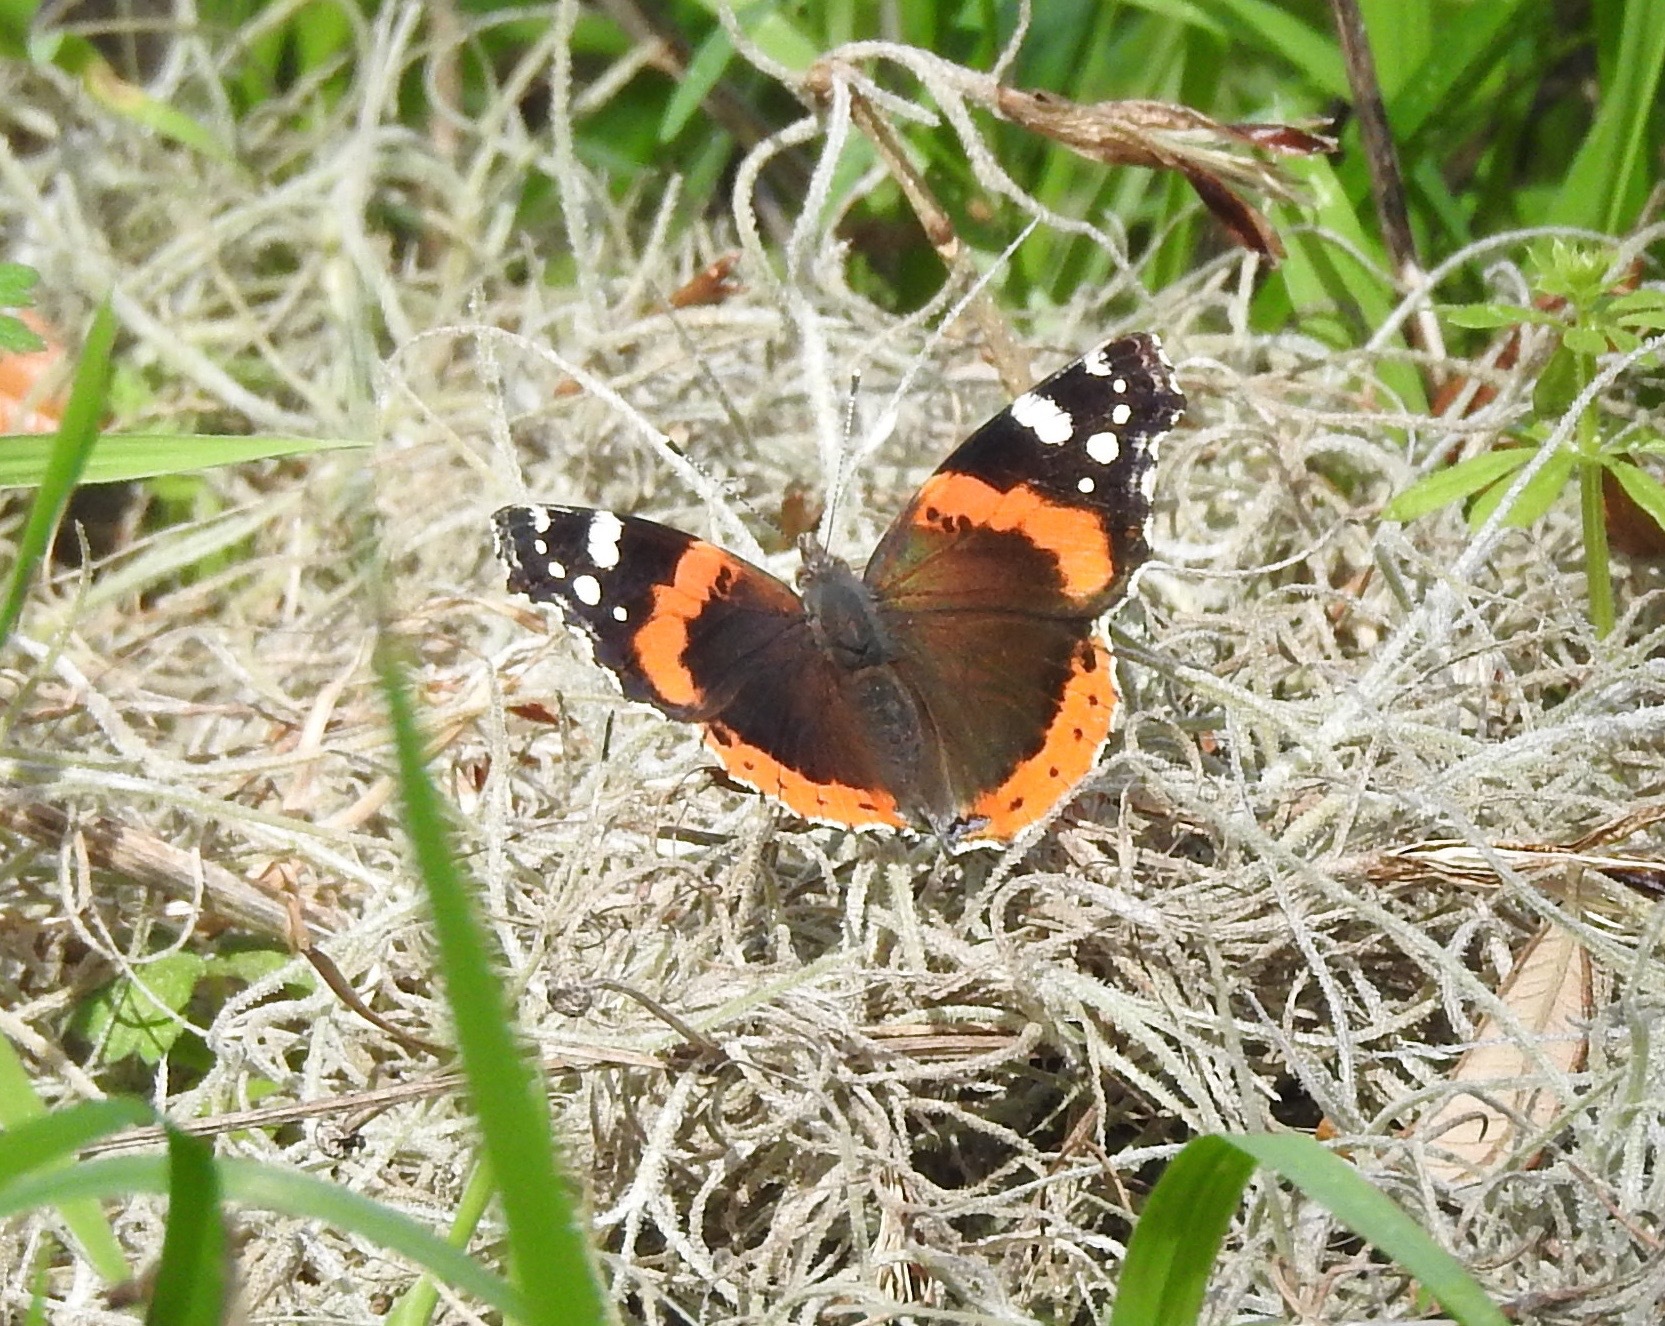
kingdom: Animalia
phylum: Arthropoda
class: Insecta
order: Lepidoptera
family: Nymphalidae
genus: Vanessa
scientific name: Vanessa atalanta
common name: Red admiral
